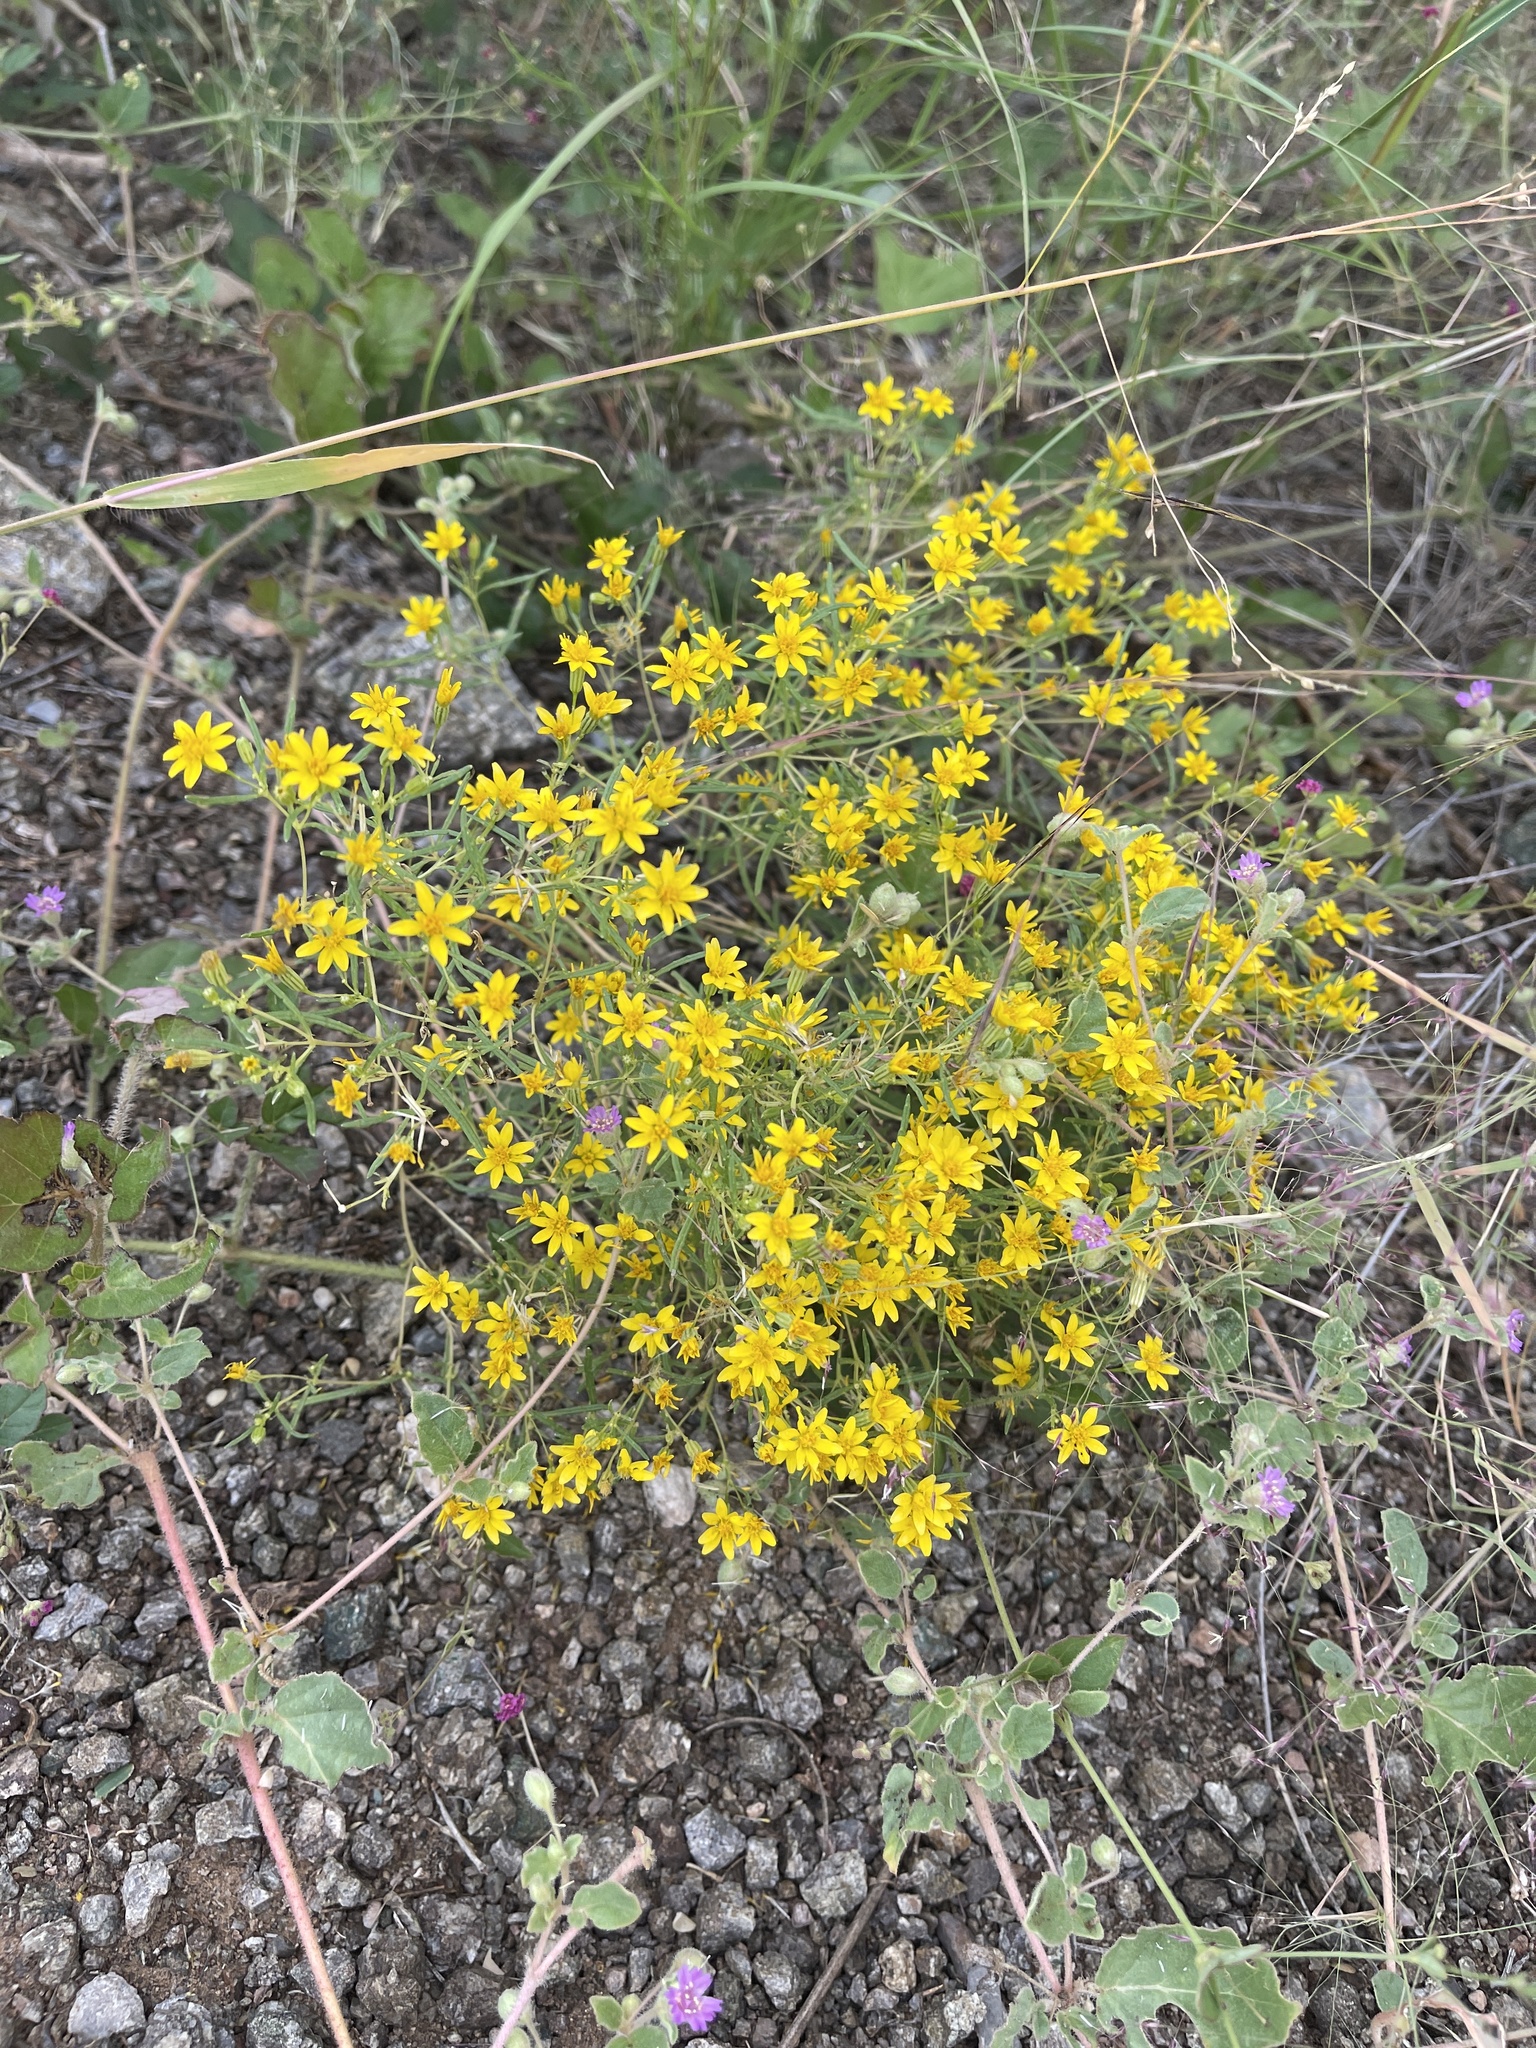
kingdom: Plantae
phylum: Tracheophyta
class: Magnoliopsida
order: Asterales
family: Asteraceae
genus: Pectis
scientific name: Pectis papposa
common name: Many-bristle chinchweed
